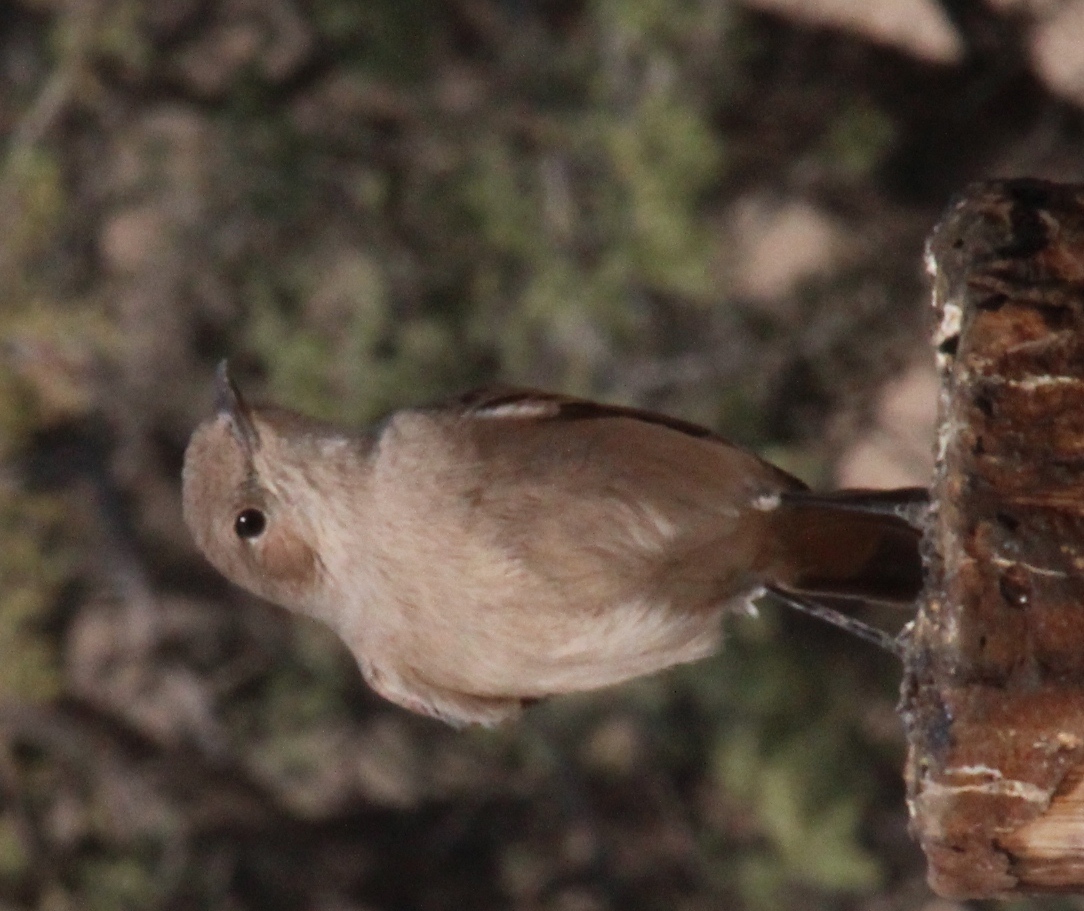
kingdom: Animalia
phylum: Chordata
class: Aves
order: Passeriformes
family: Muscicapidae
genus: Oenanthe
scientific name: Oenanthe familiaris
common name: Familiar chat
